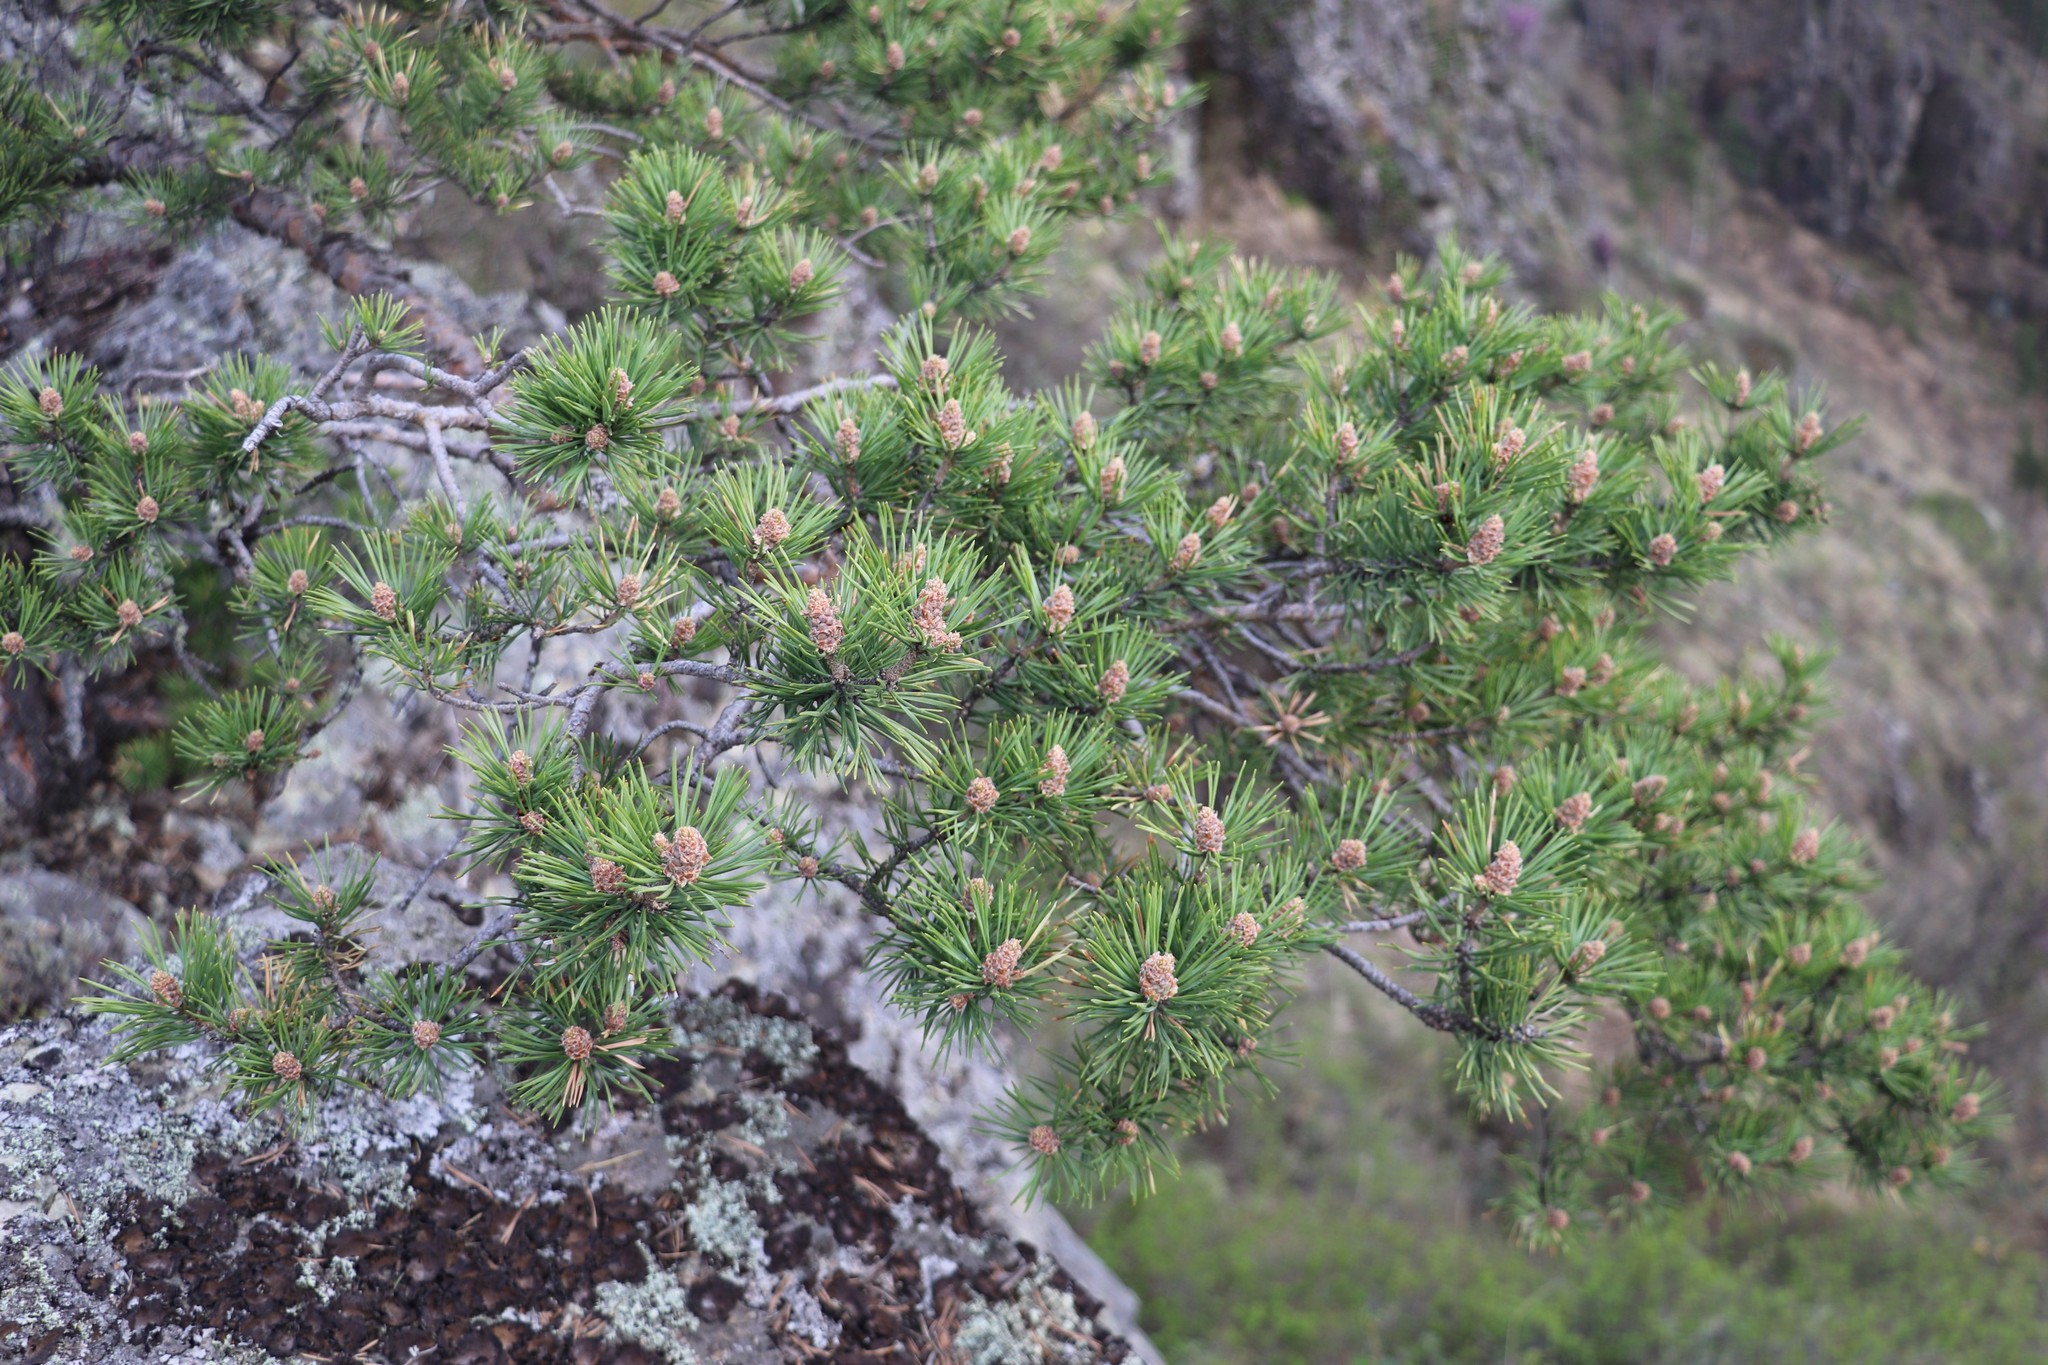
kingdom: Plantae
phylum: Tracheophyta
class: Pinopsida
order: Pinales
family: Pinaceae
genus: Pinus
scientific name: Pinus sylvestris
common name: Scots pine
